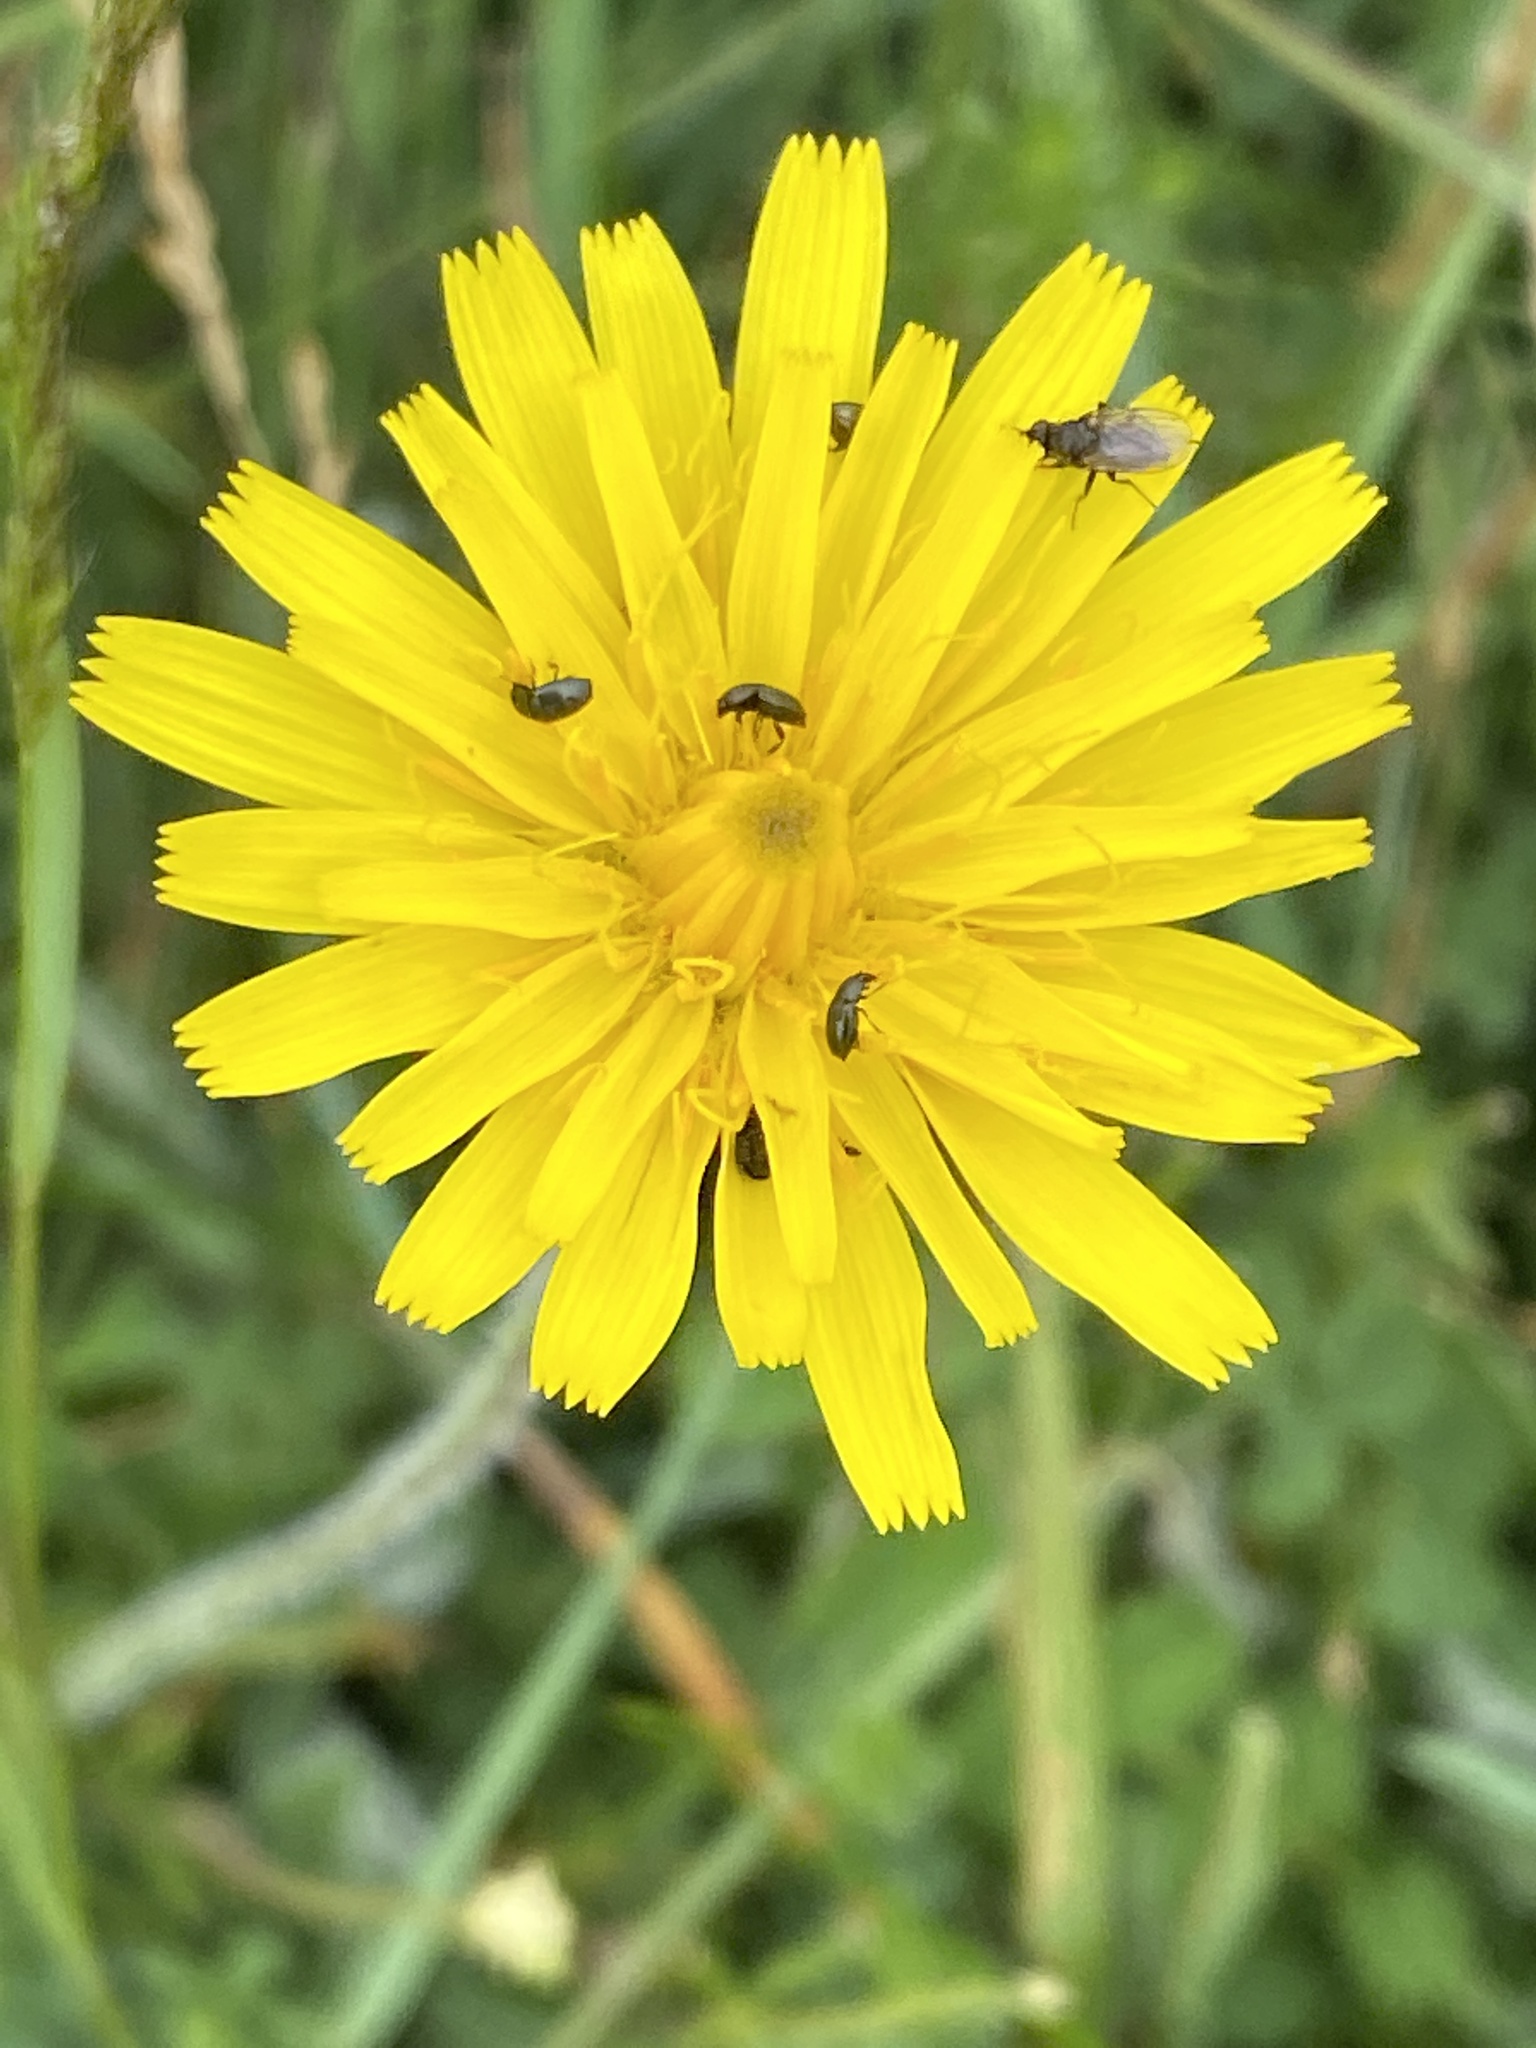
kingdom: Plantae
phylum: Tracheophyta
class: Magnoliopsida
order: Asterales
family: Asteraceae
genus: Hypochaeris
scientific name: Hypochaeris radicata
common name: Flatweed
